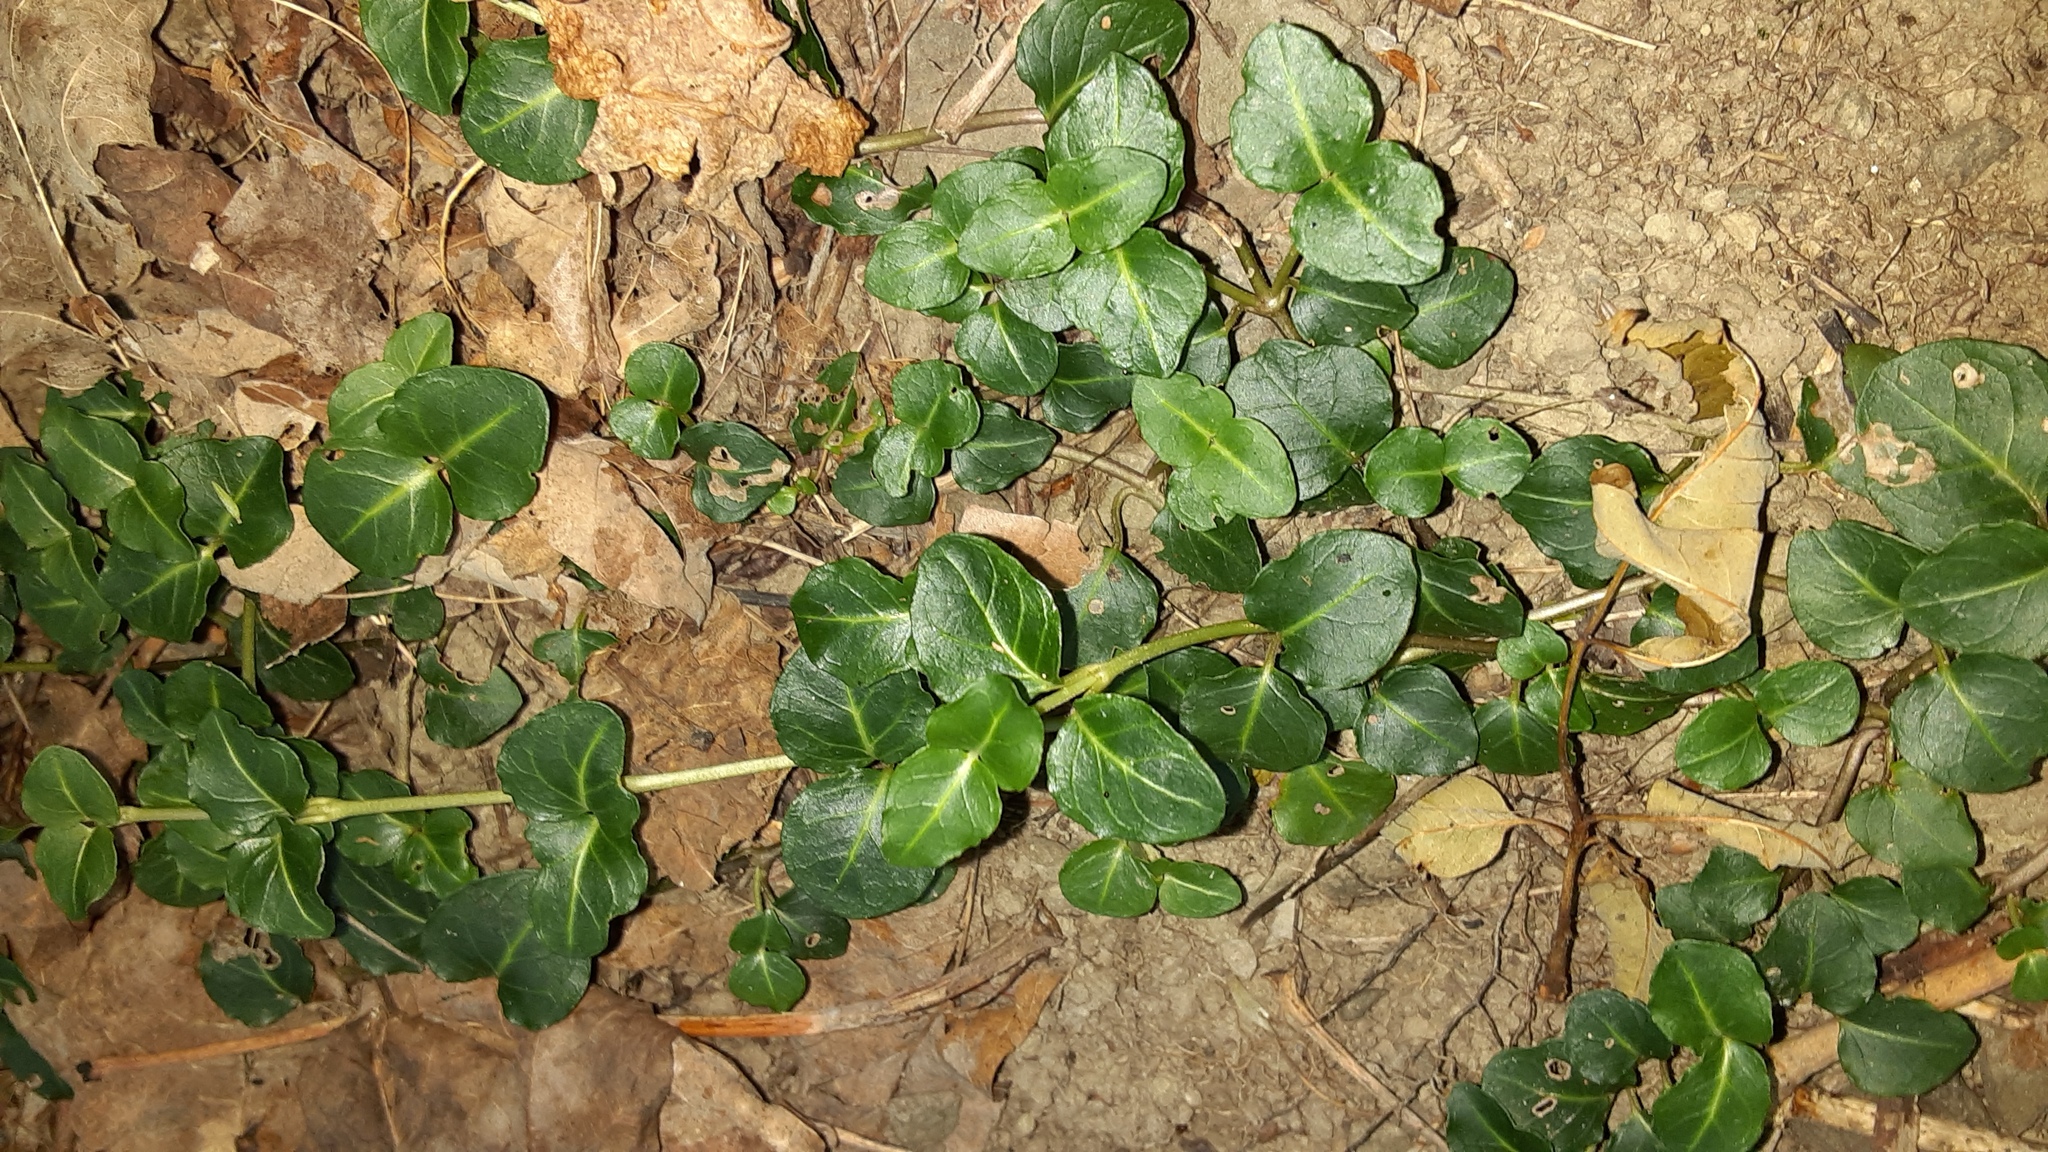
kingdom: Plantae
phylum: Tracheophyta
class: Magnoliopsida
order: Gentianales
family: Rubiaceae
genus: Mitchella
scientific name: Mitchella repens
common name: Partridge-berry
